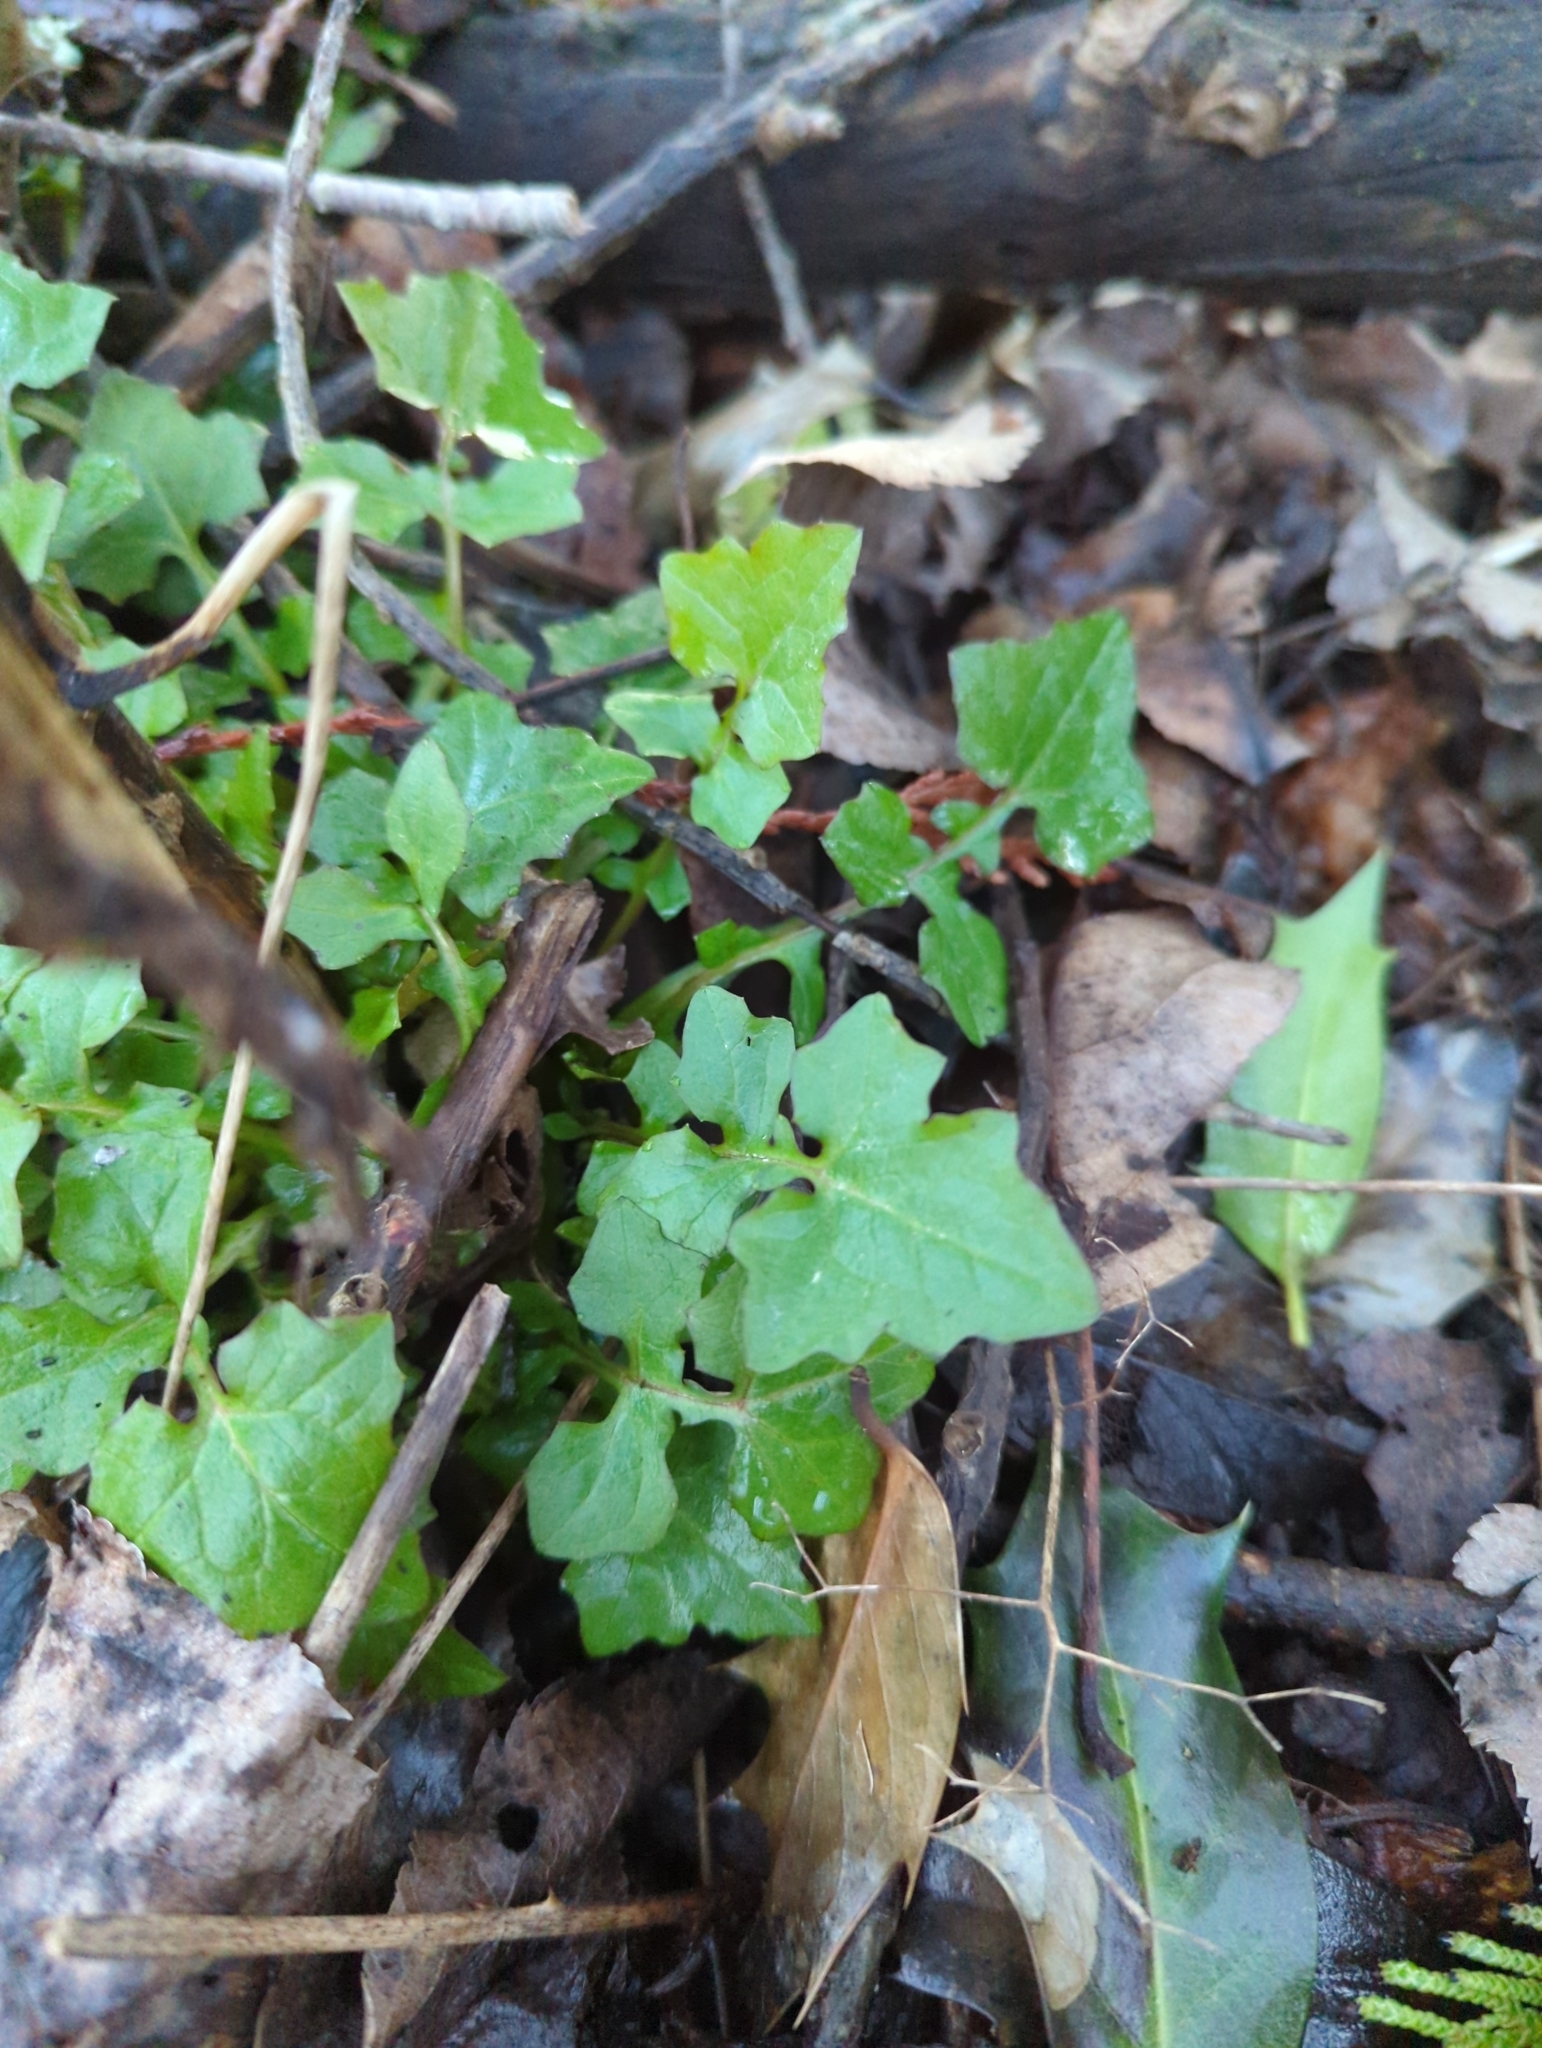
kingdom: Plantae
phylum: Tracheophyta
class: Magnoliopsida
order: Asterales
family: Asteraceae
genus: Mycelis
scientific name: Mycelis muralis
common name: Wall lettuce
